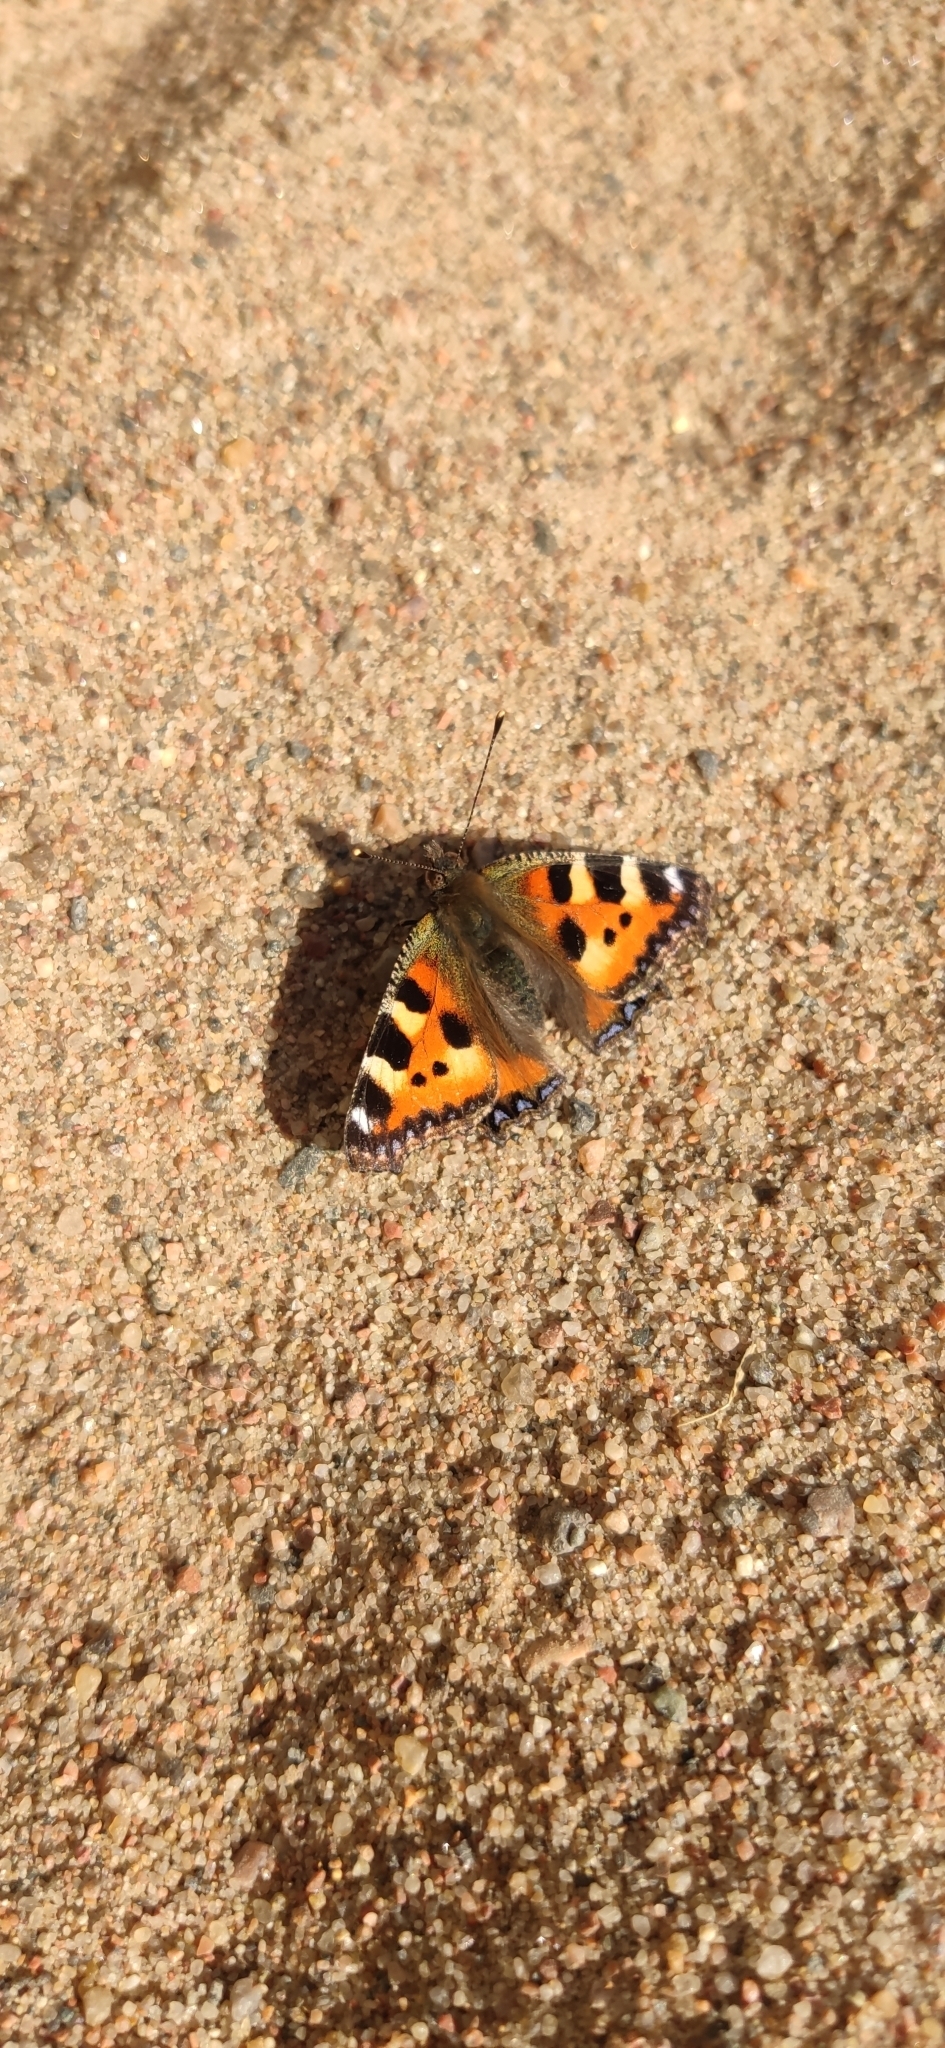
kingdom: Animalia
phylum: Arthropoda
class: Insecta
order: Lepidoptera
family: Nymphalidae
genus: Aglais
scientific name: Aglais urticae
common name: Small tortoiseshell
